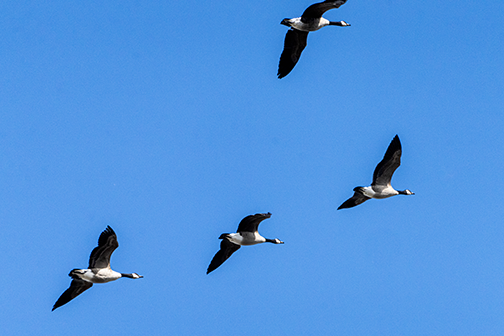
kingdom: Animalia
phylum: Chordata
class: Aves
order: Anseriformes
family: Anatidae
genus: Branta
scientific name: Branta canadensis
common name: Canada goose
